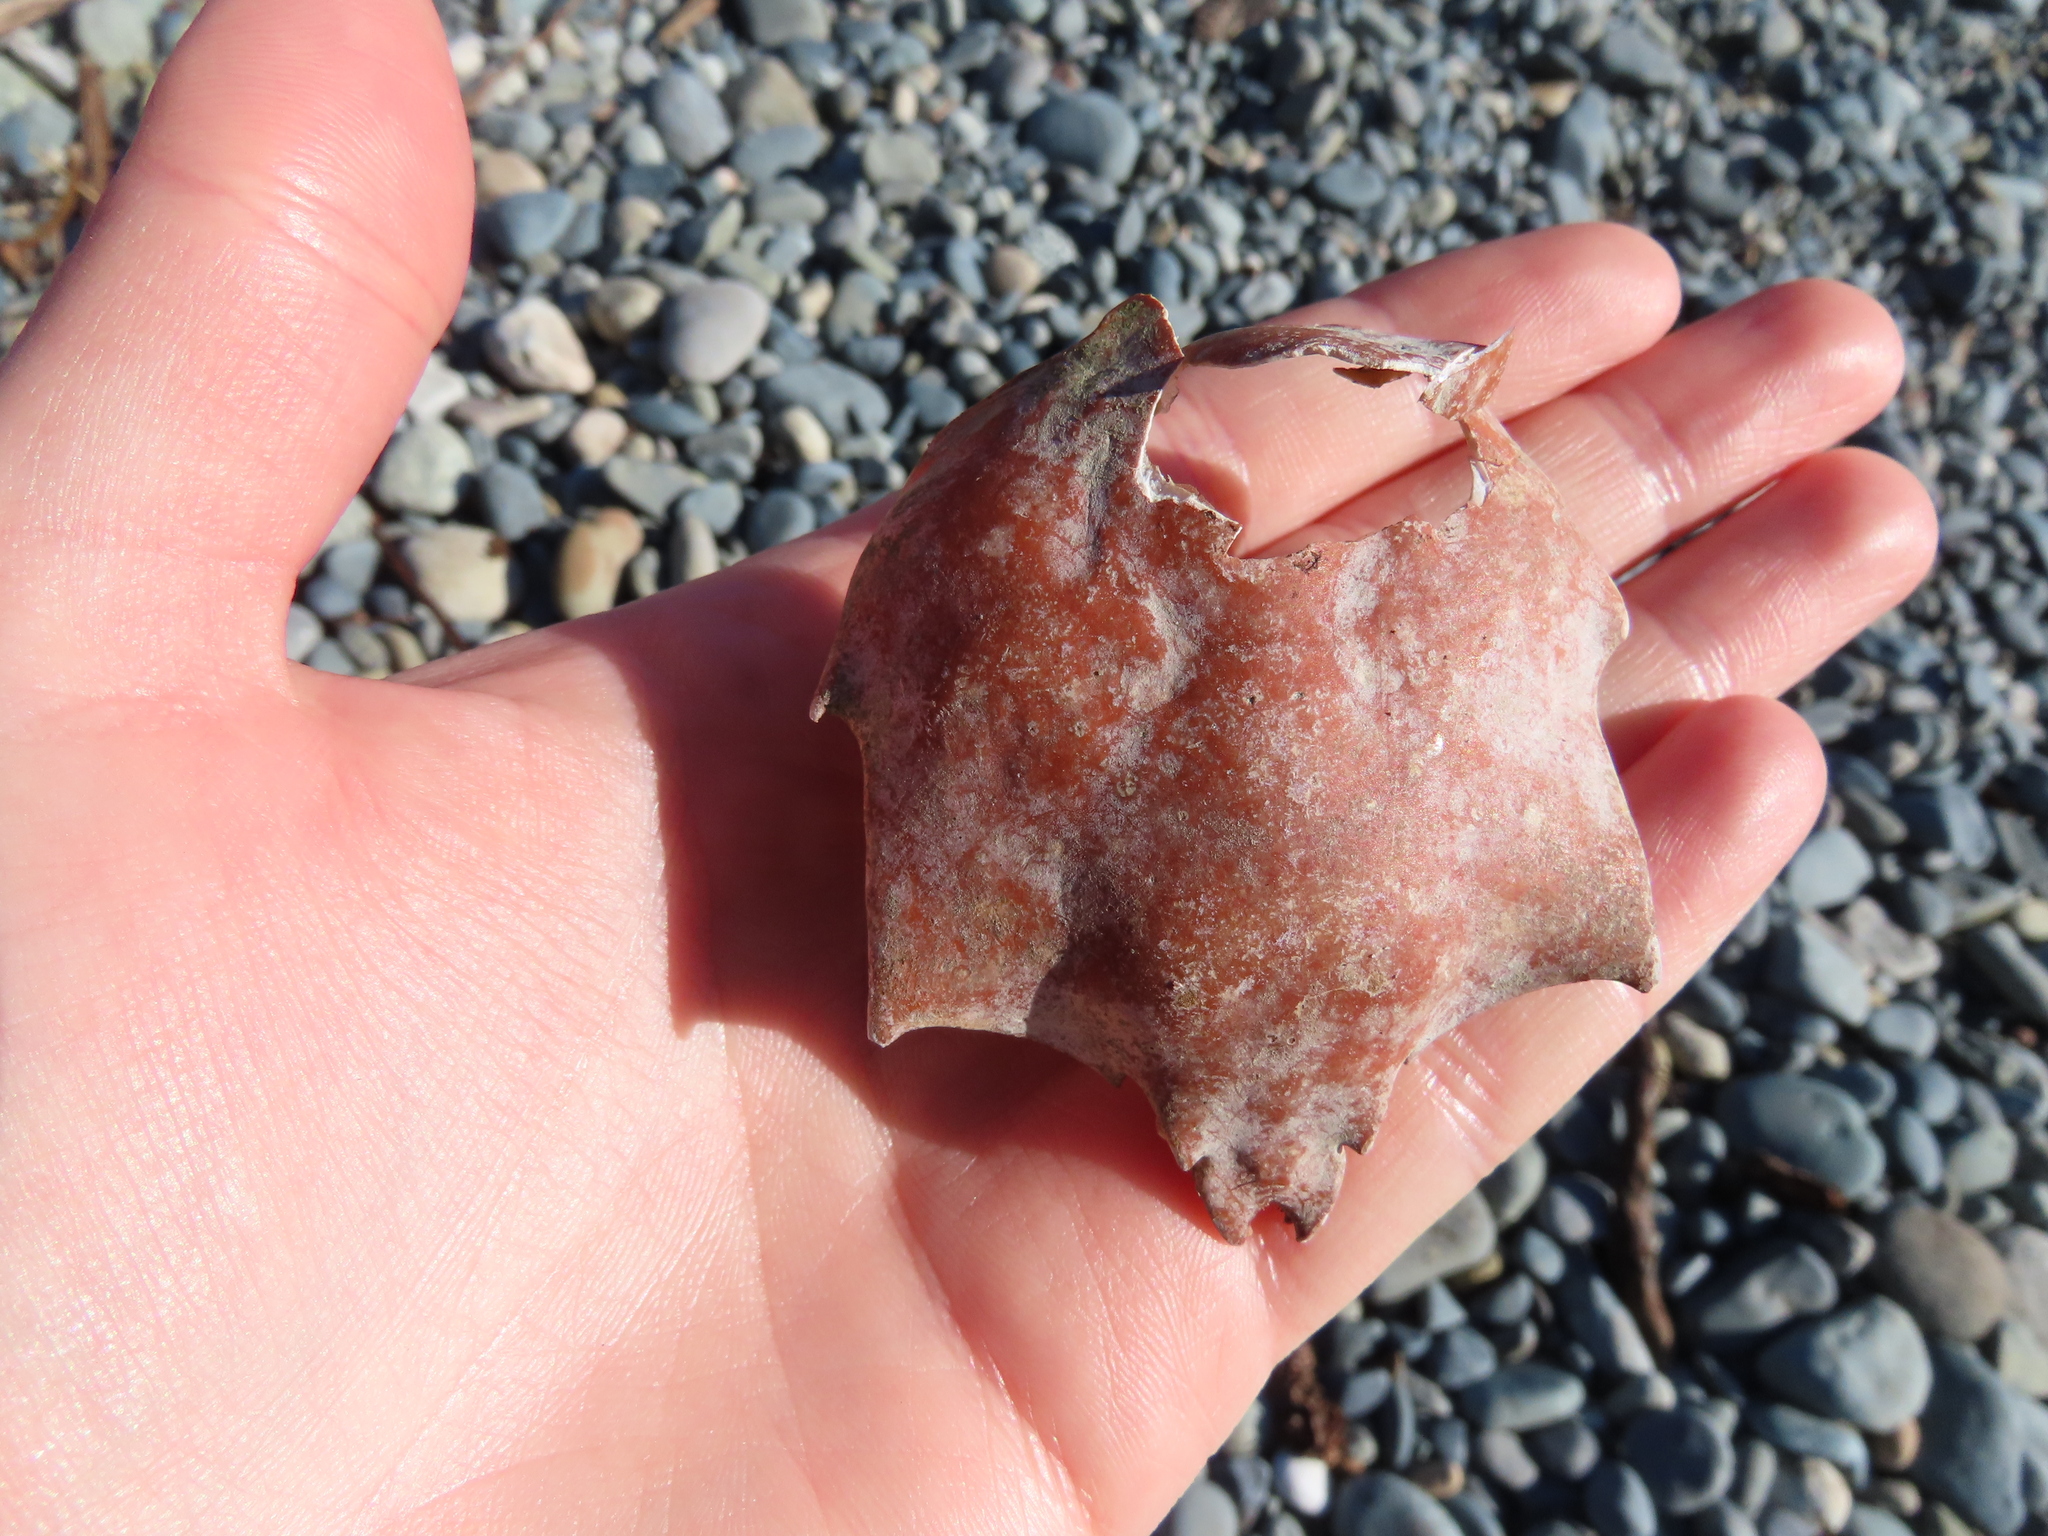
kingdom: Animalia
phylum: Arthropoda
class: Malacostraca
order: Decapoda
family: Epialtidae
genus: Pugettia
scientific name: Pugettia producta
